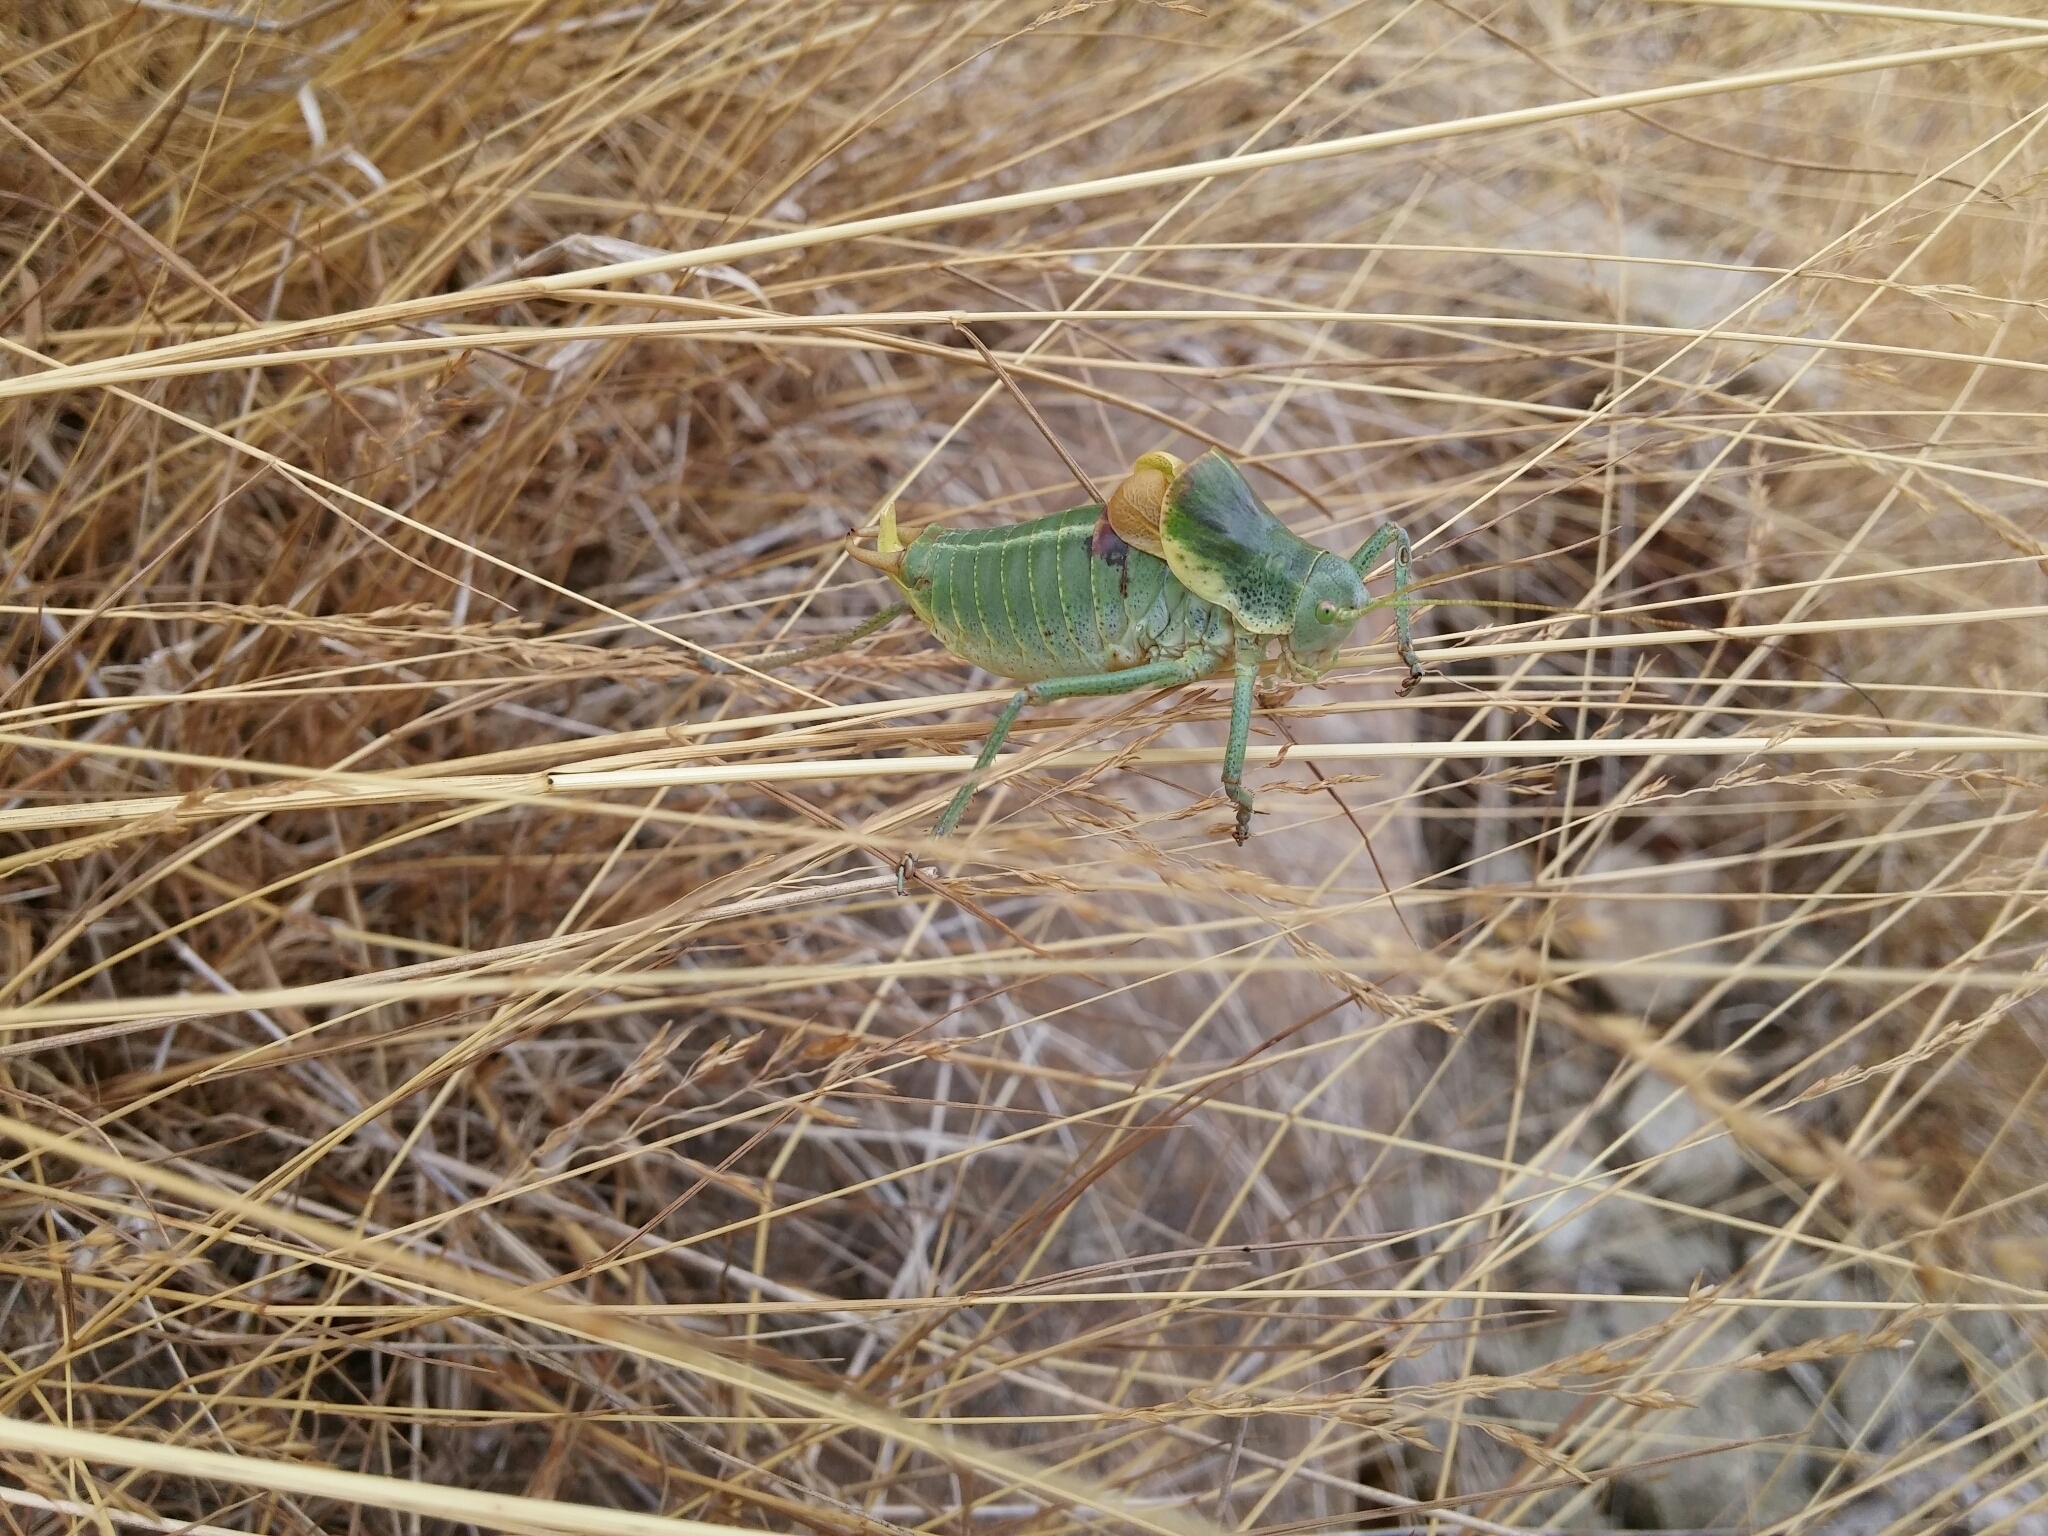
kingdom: Animalia
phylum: Arthropoda
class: Insecta
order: Orthoptera
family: Tettigoniidae
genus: Polysarcus
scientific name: Polysarcus denticauda
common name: Large saw-tailed bush-cricket
